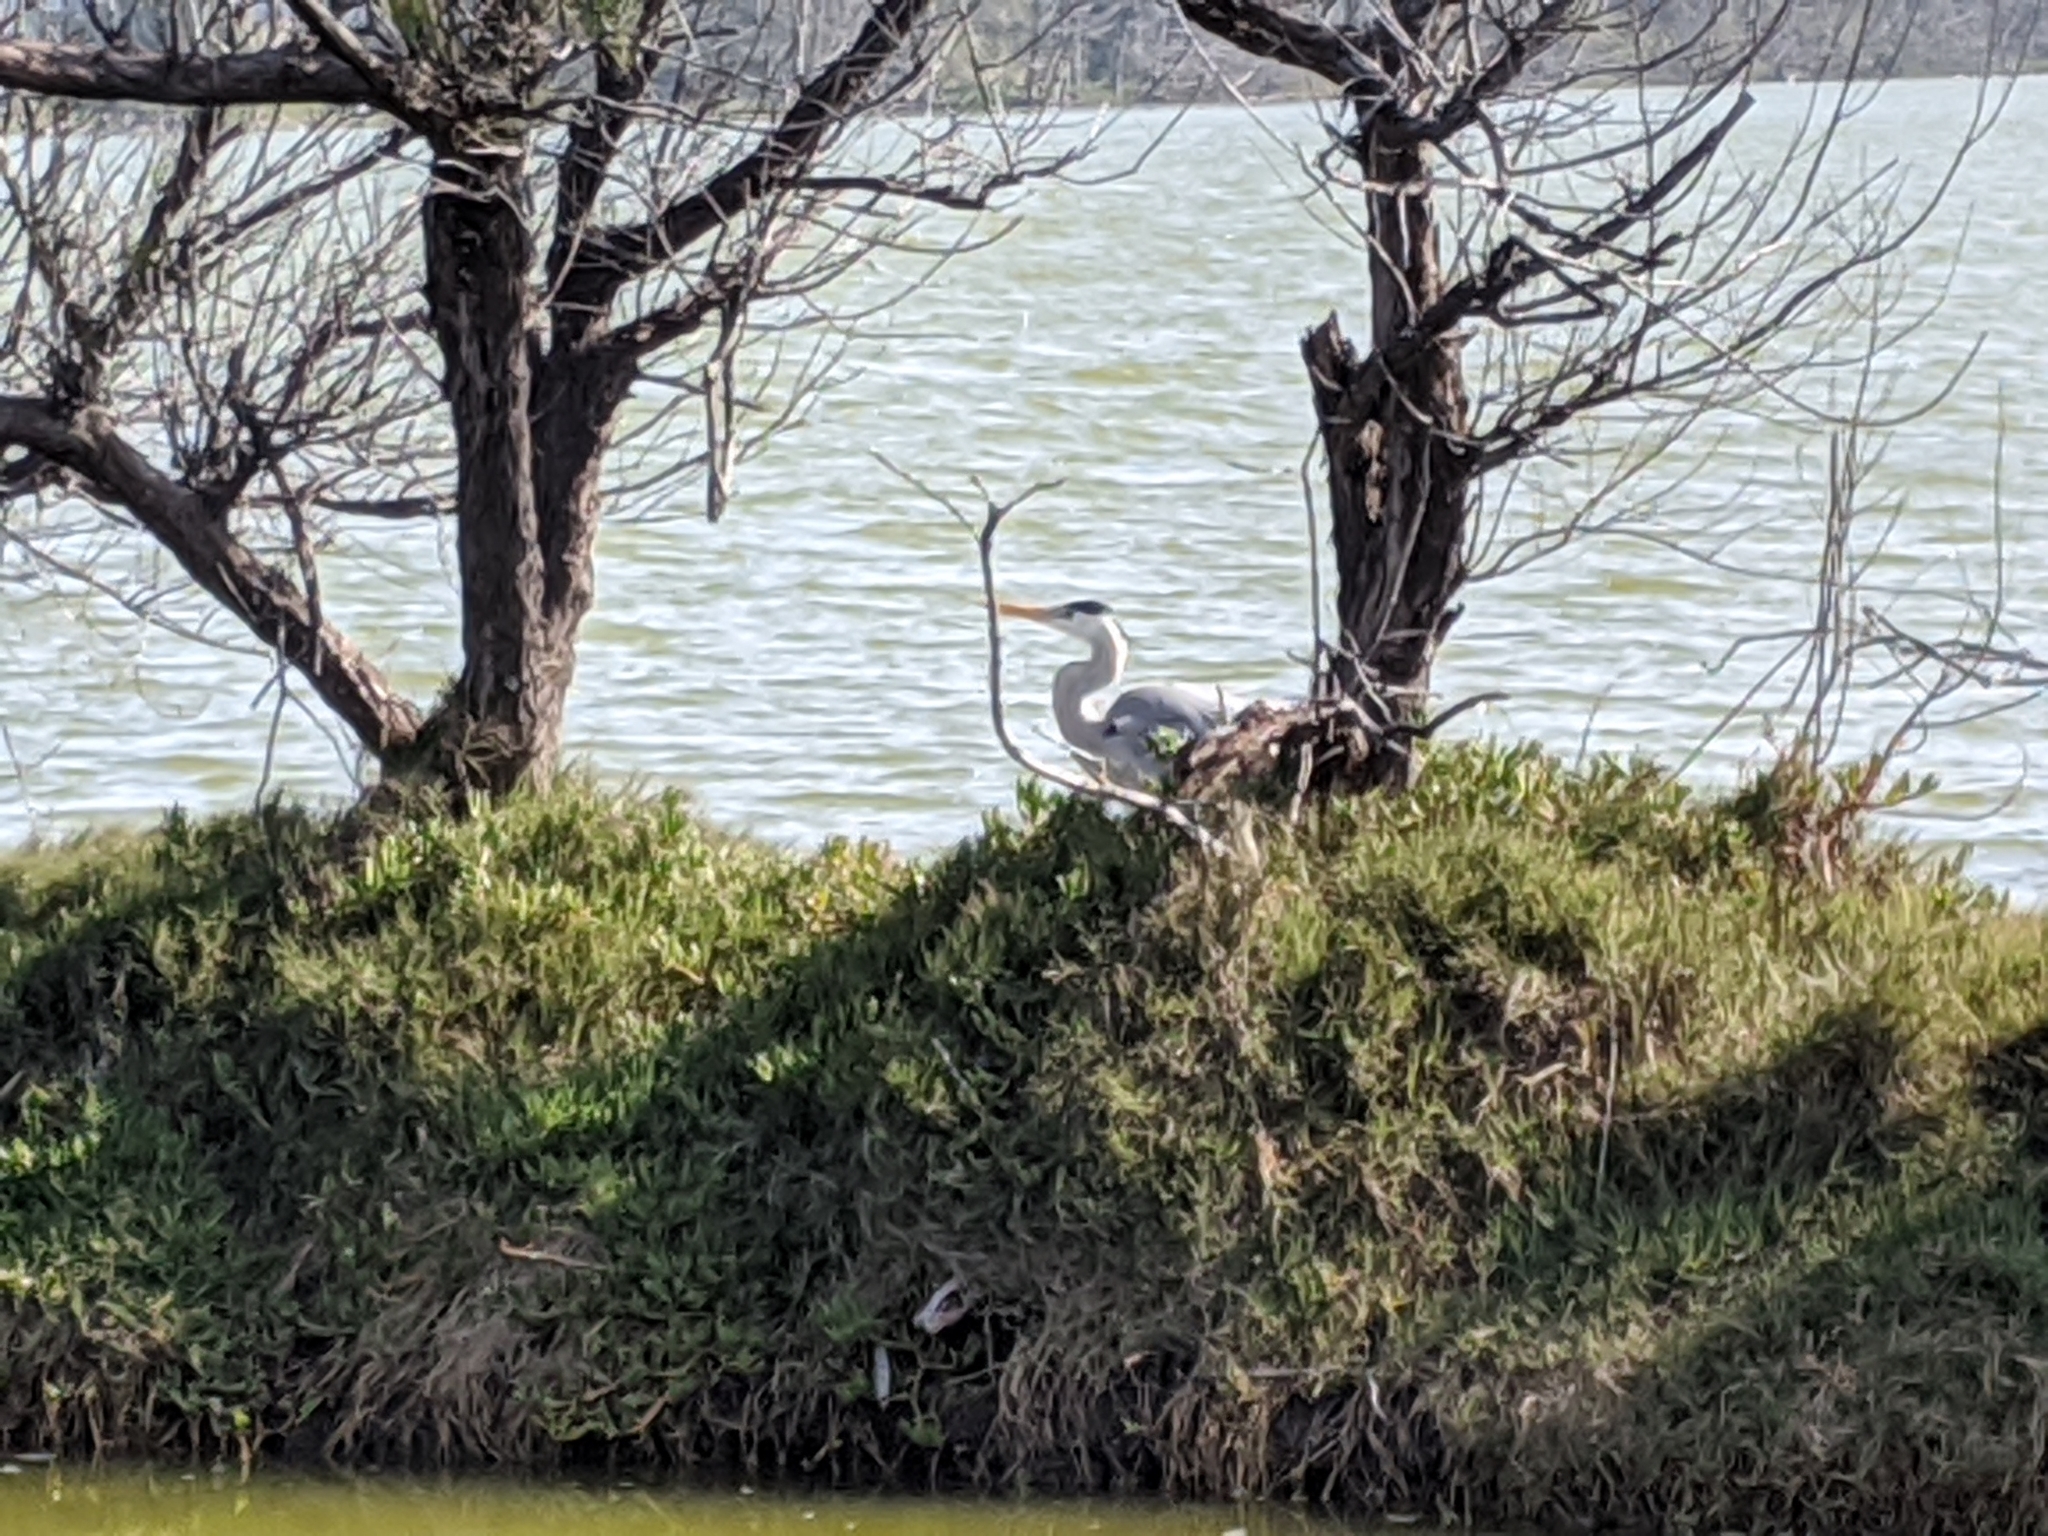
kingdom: Animalia
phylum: Chordata
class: Aves
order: Pelecaniformes
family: Ardeidae
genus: Ardea
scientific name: Ardea cinerea
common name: Grey heron
